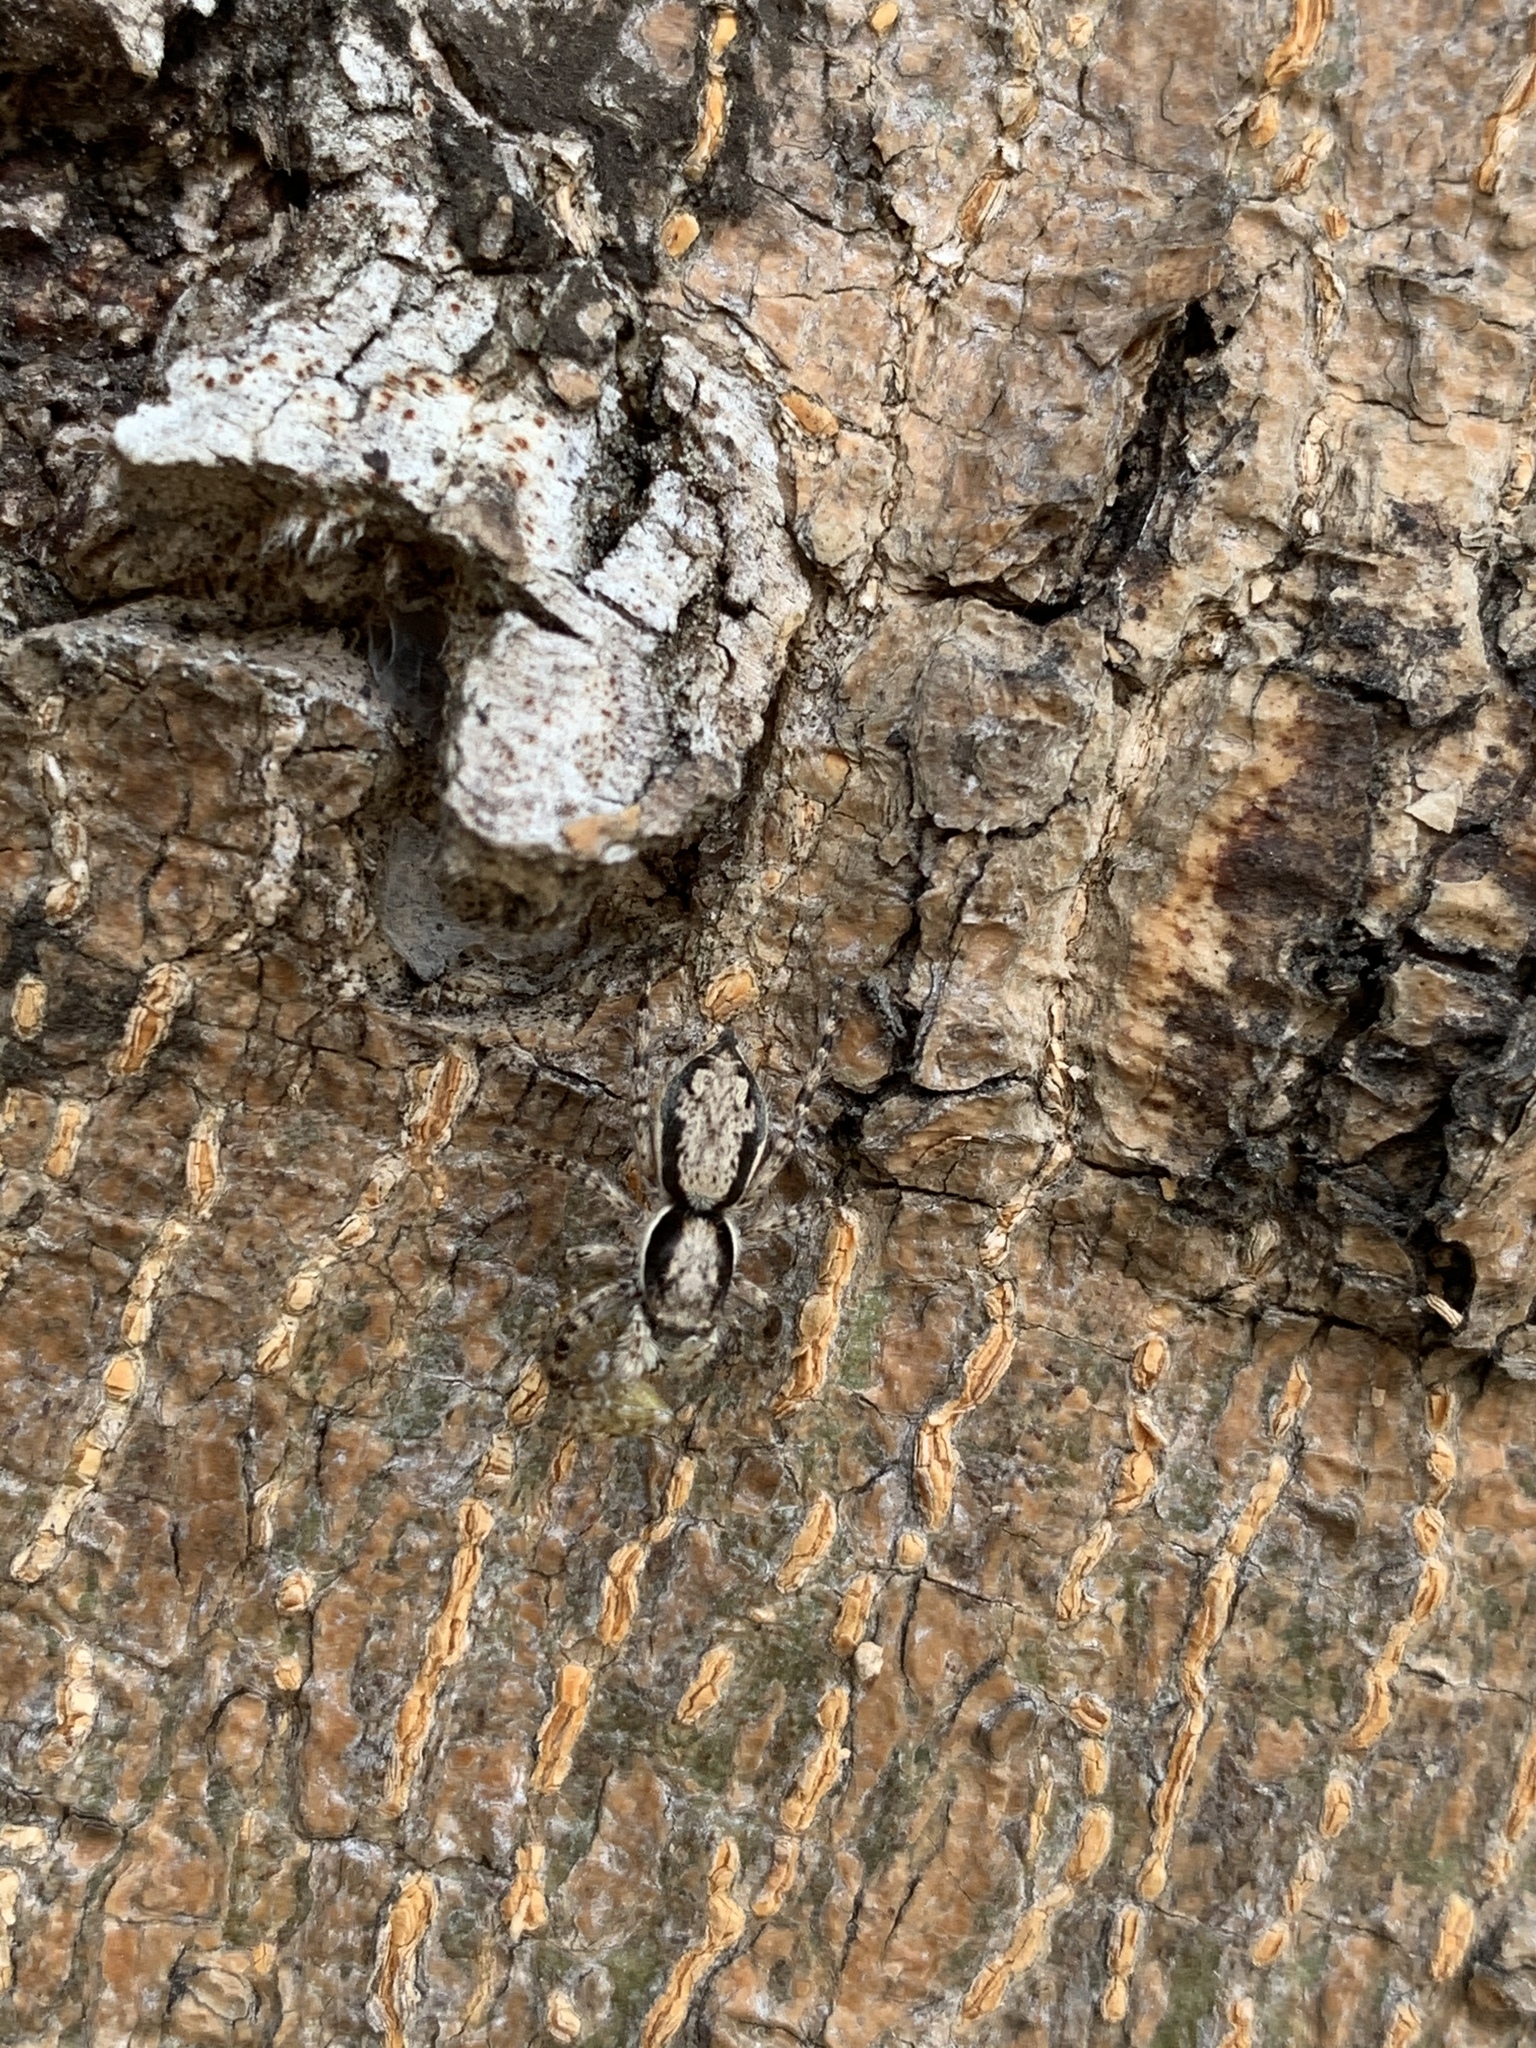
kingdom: Animalia
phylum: Arthropoda
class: Arachnida
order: Araneae
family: Salticidae
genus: Menemerus
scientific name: Menemerus bivittatus
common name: Gray wall jumper
